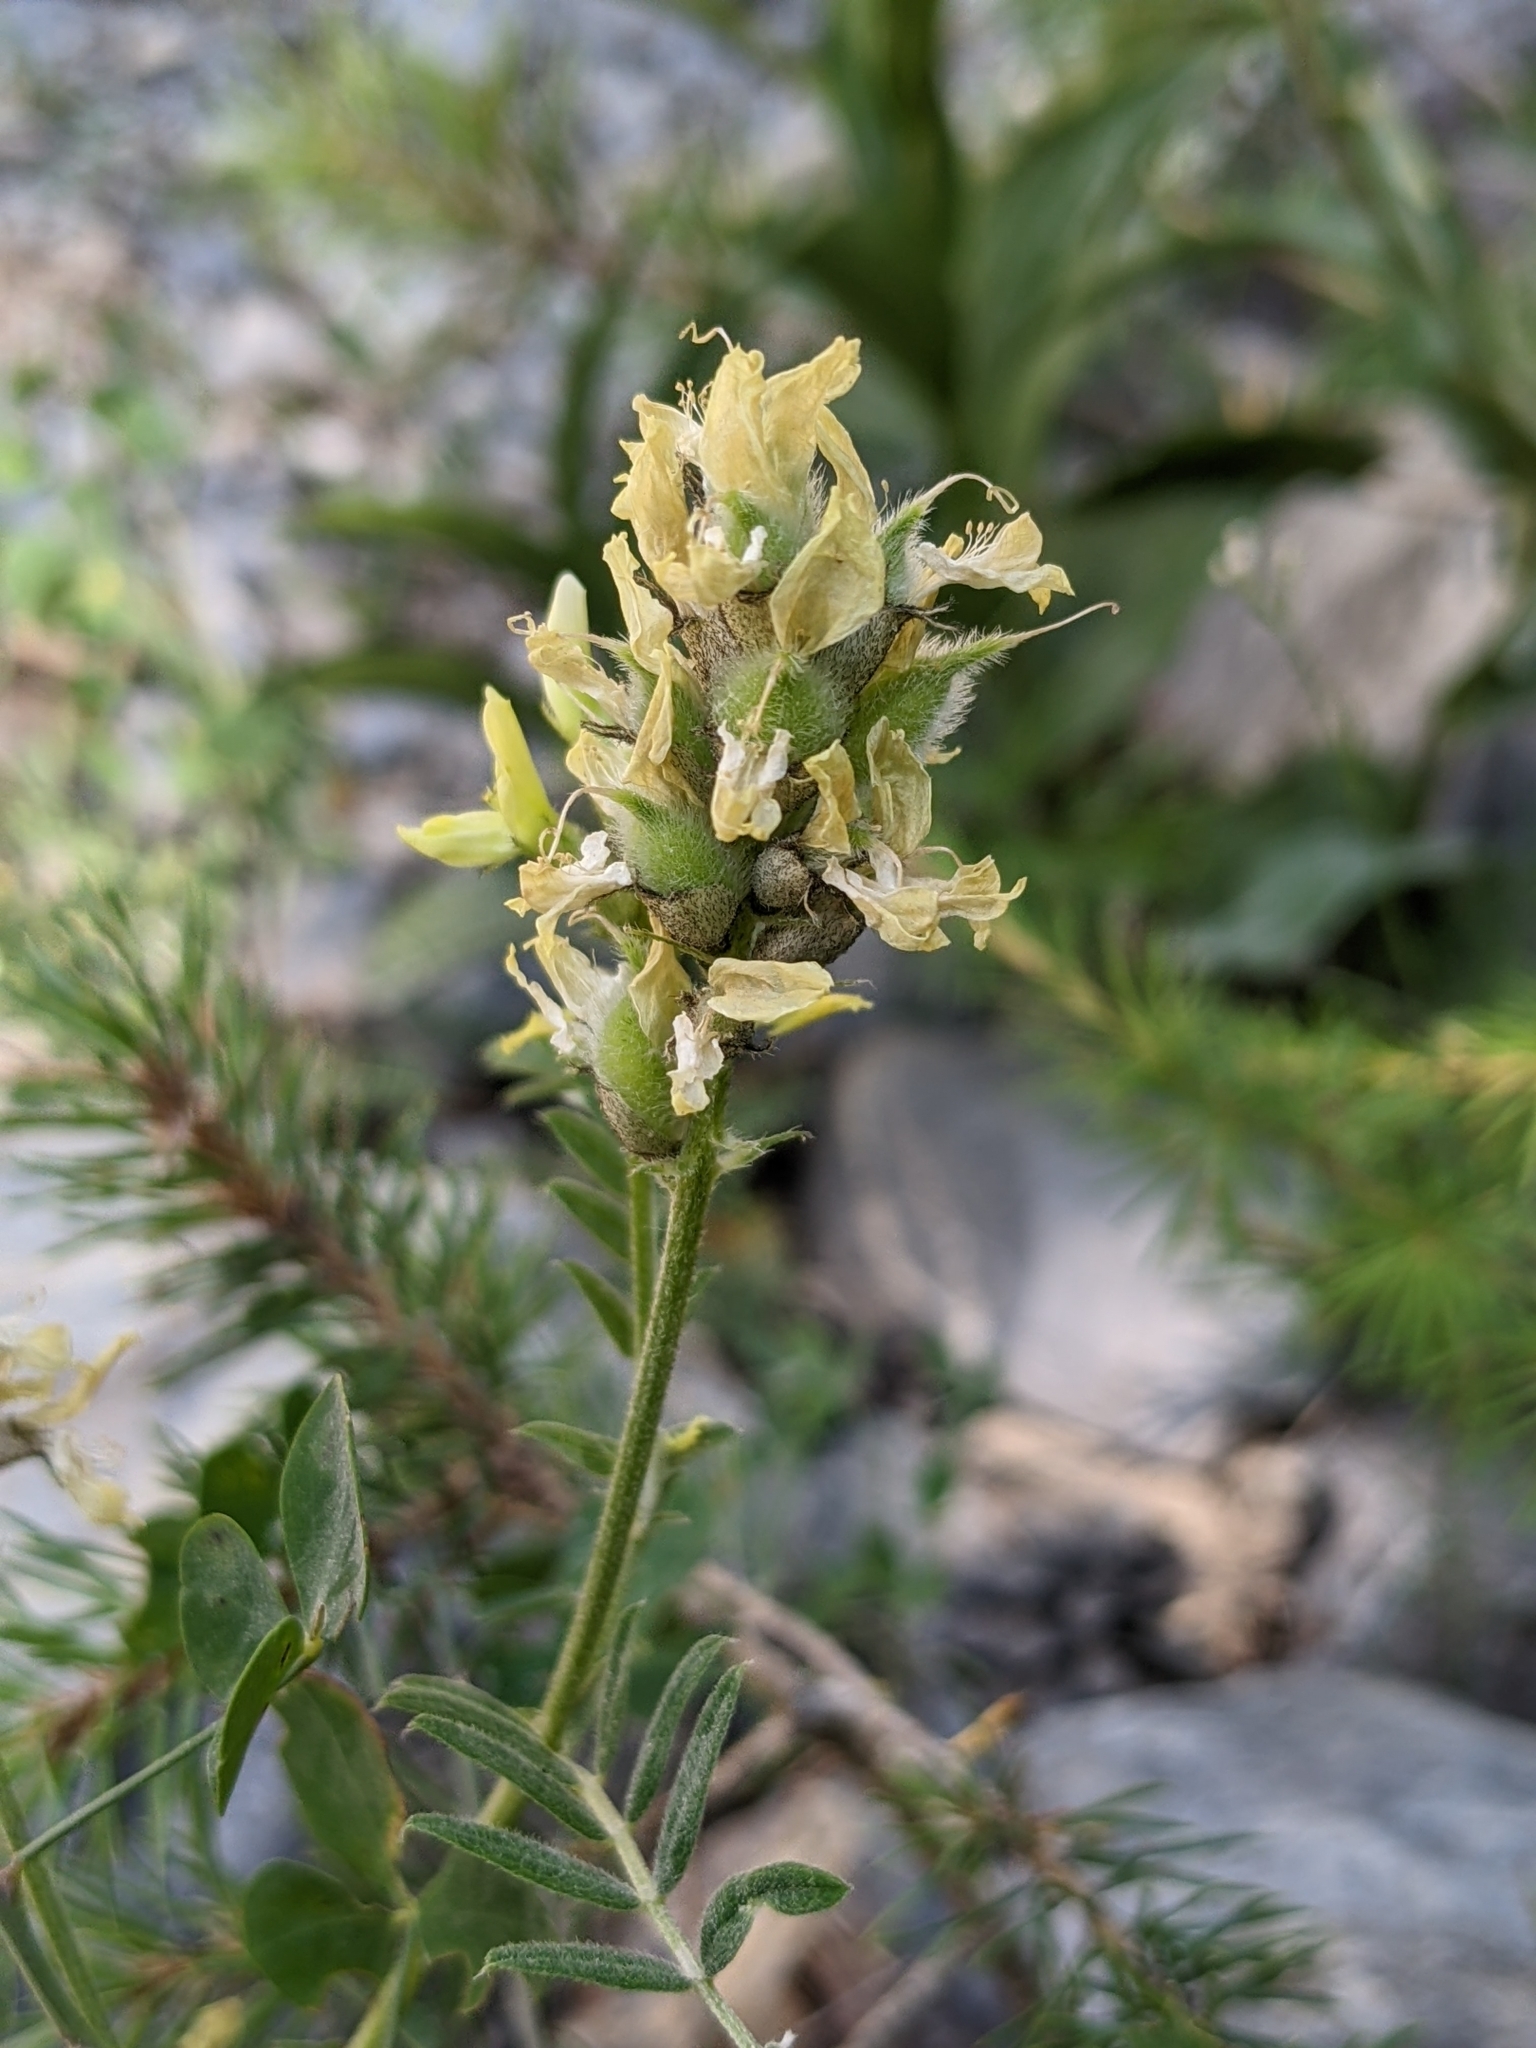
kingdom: Plantae
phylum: Tracheophyta
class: Magnoliopsida
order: Fabales
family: Fabaceae
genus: Astragalus
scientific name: Astragalus cicer
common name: Chick-pea milk-vetch
